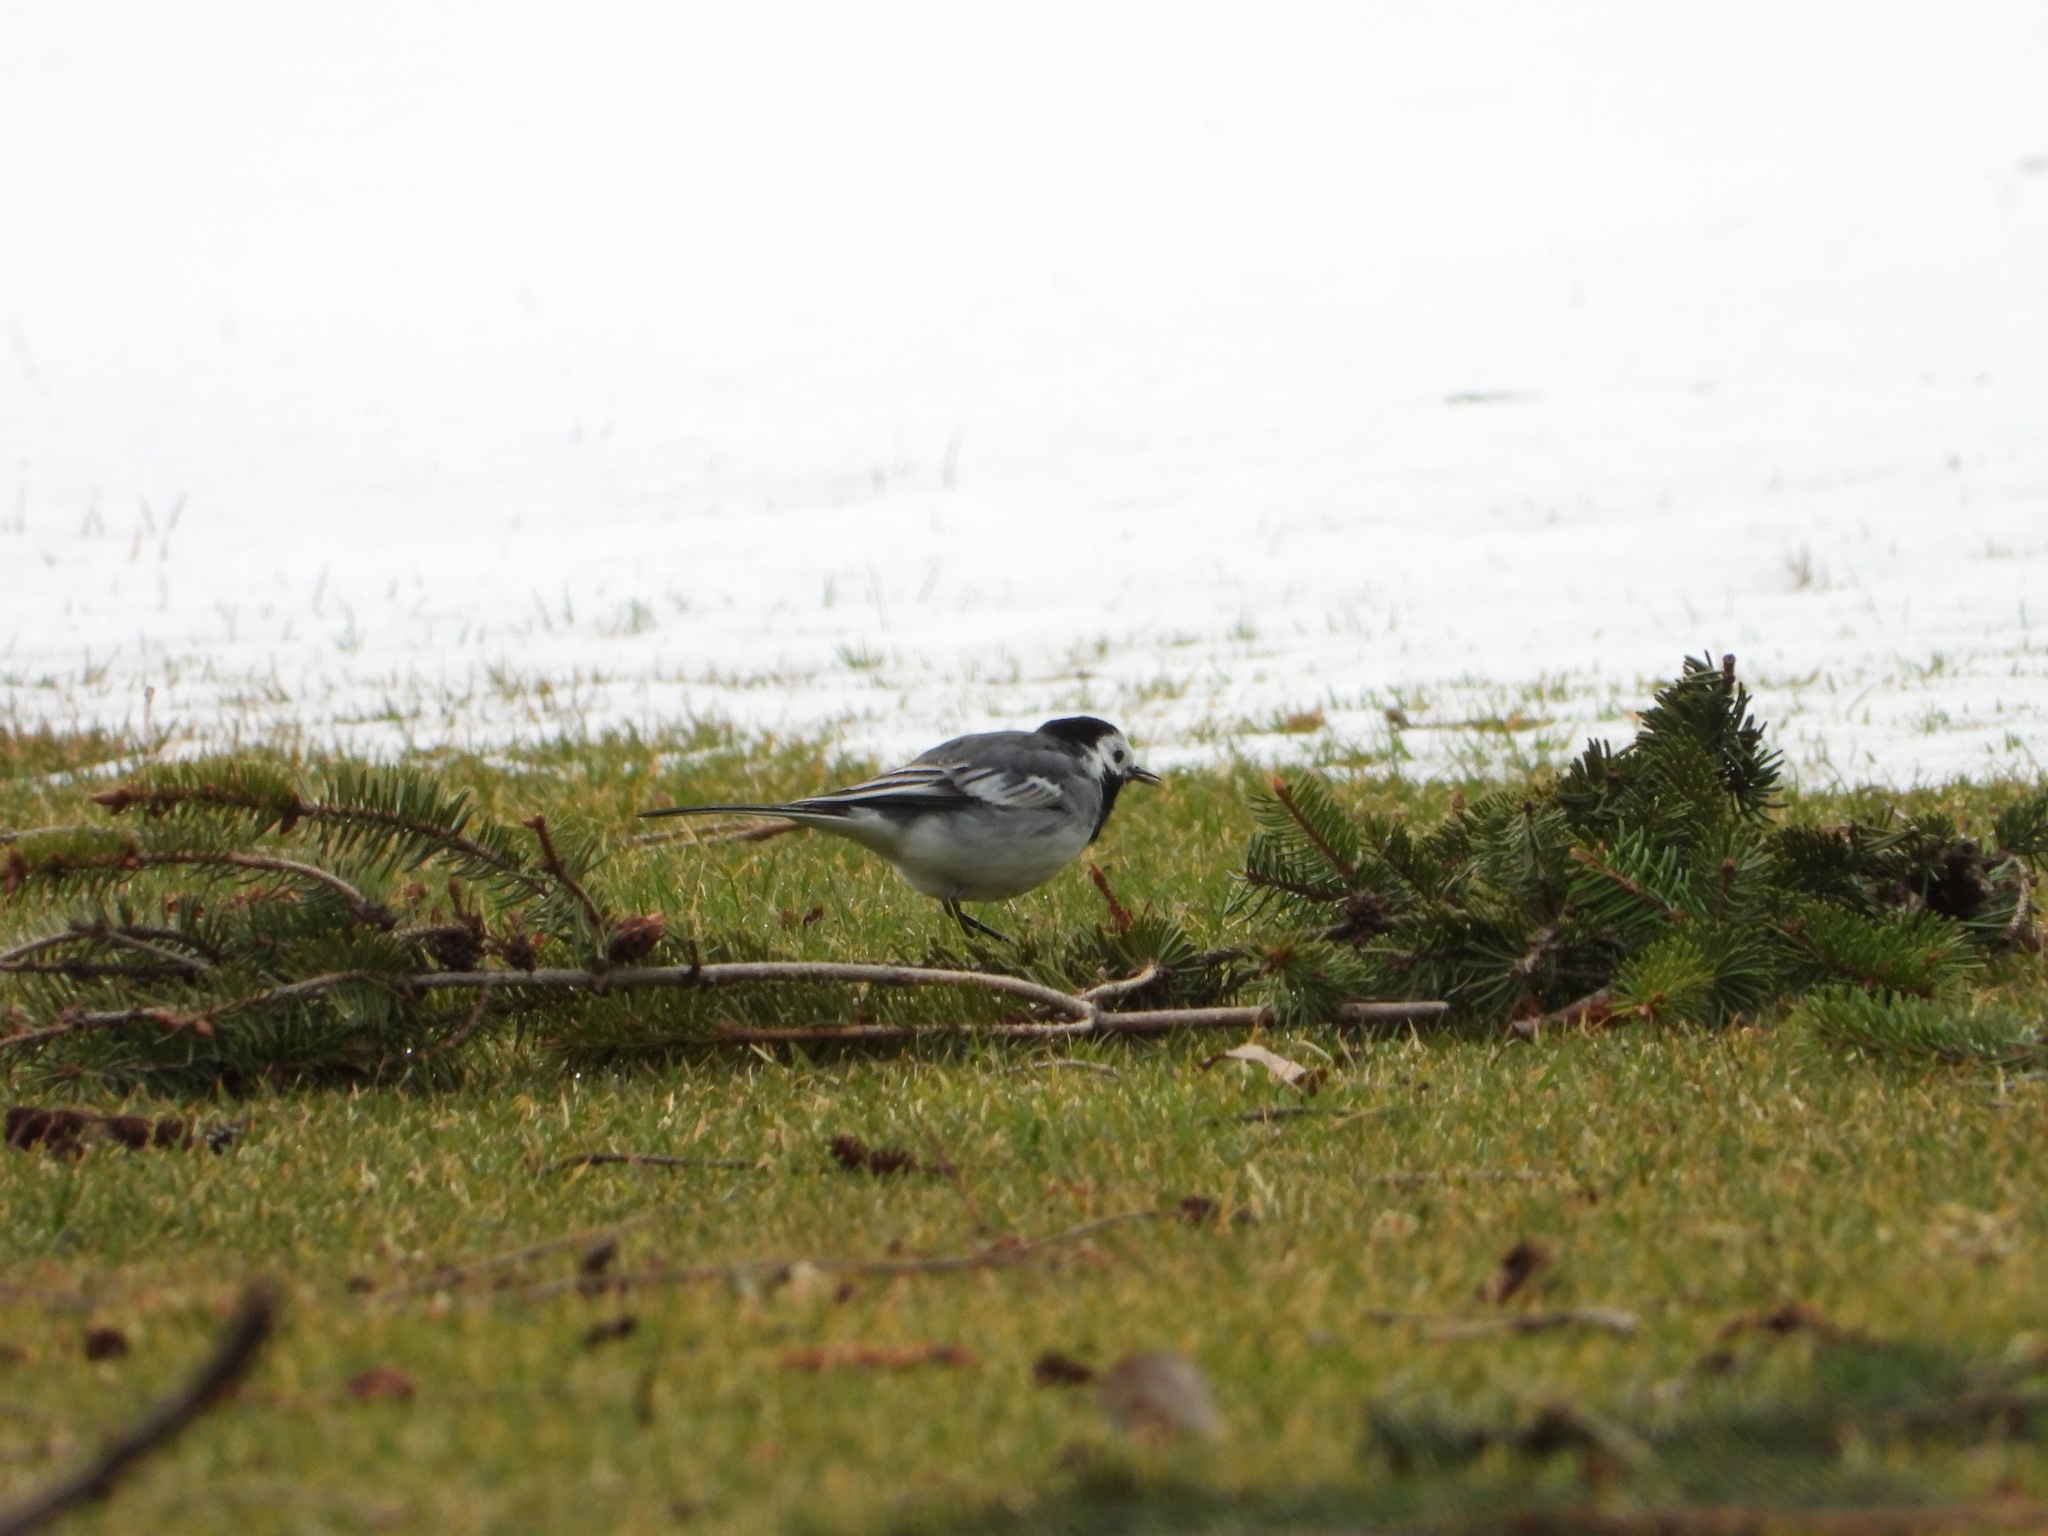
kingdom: Animalia
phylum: Chordata
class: Aves
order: Passeriformes
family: Motacillidae
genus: Motacilla
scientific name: Motacilla alba
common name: White wagtail
